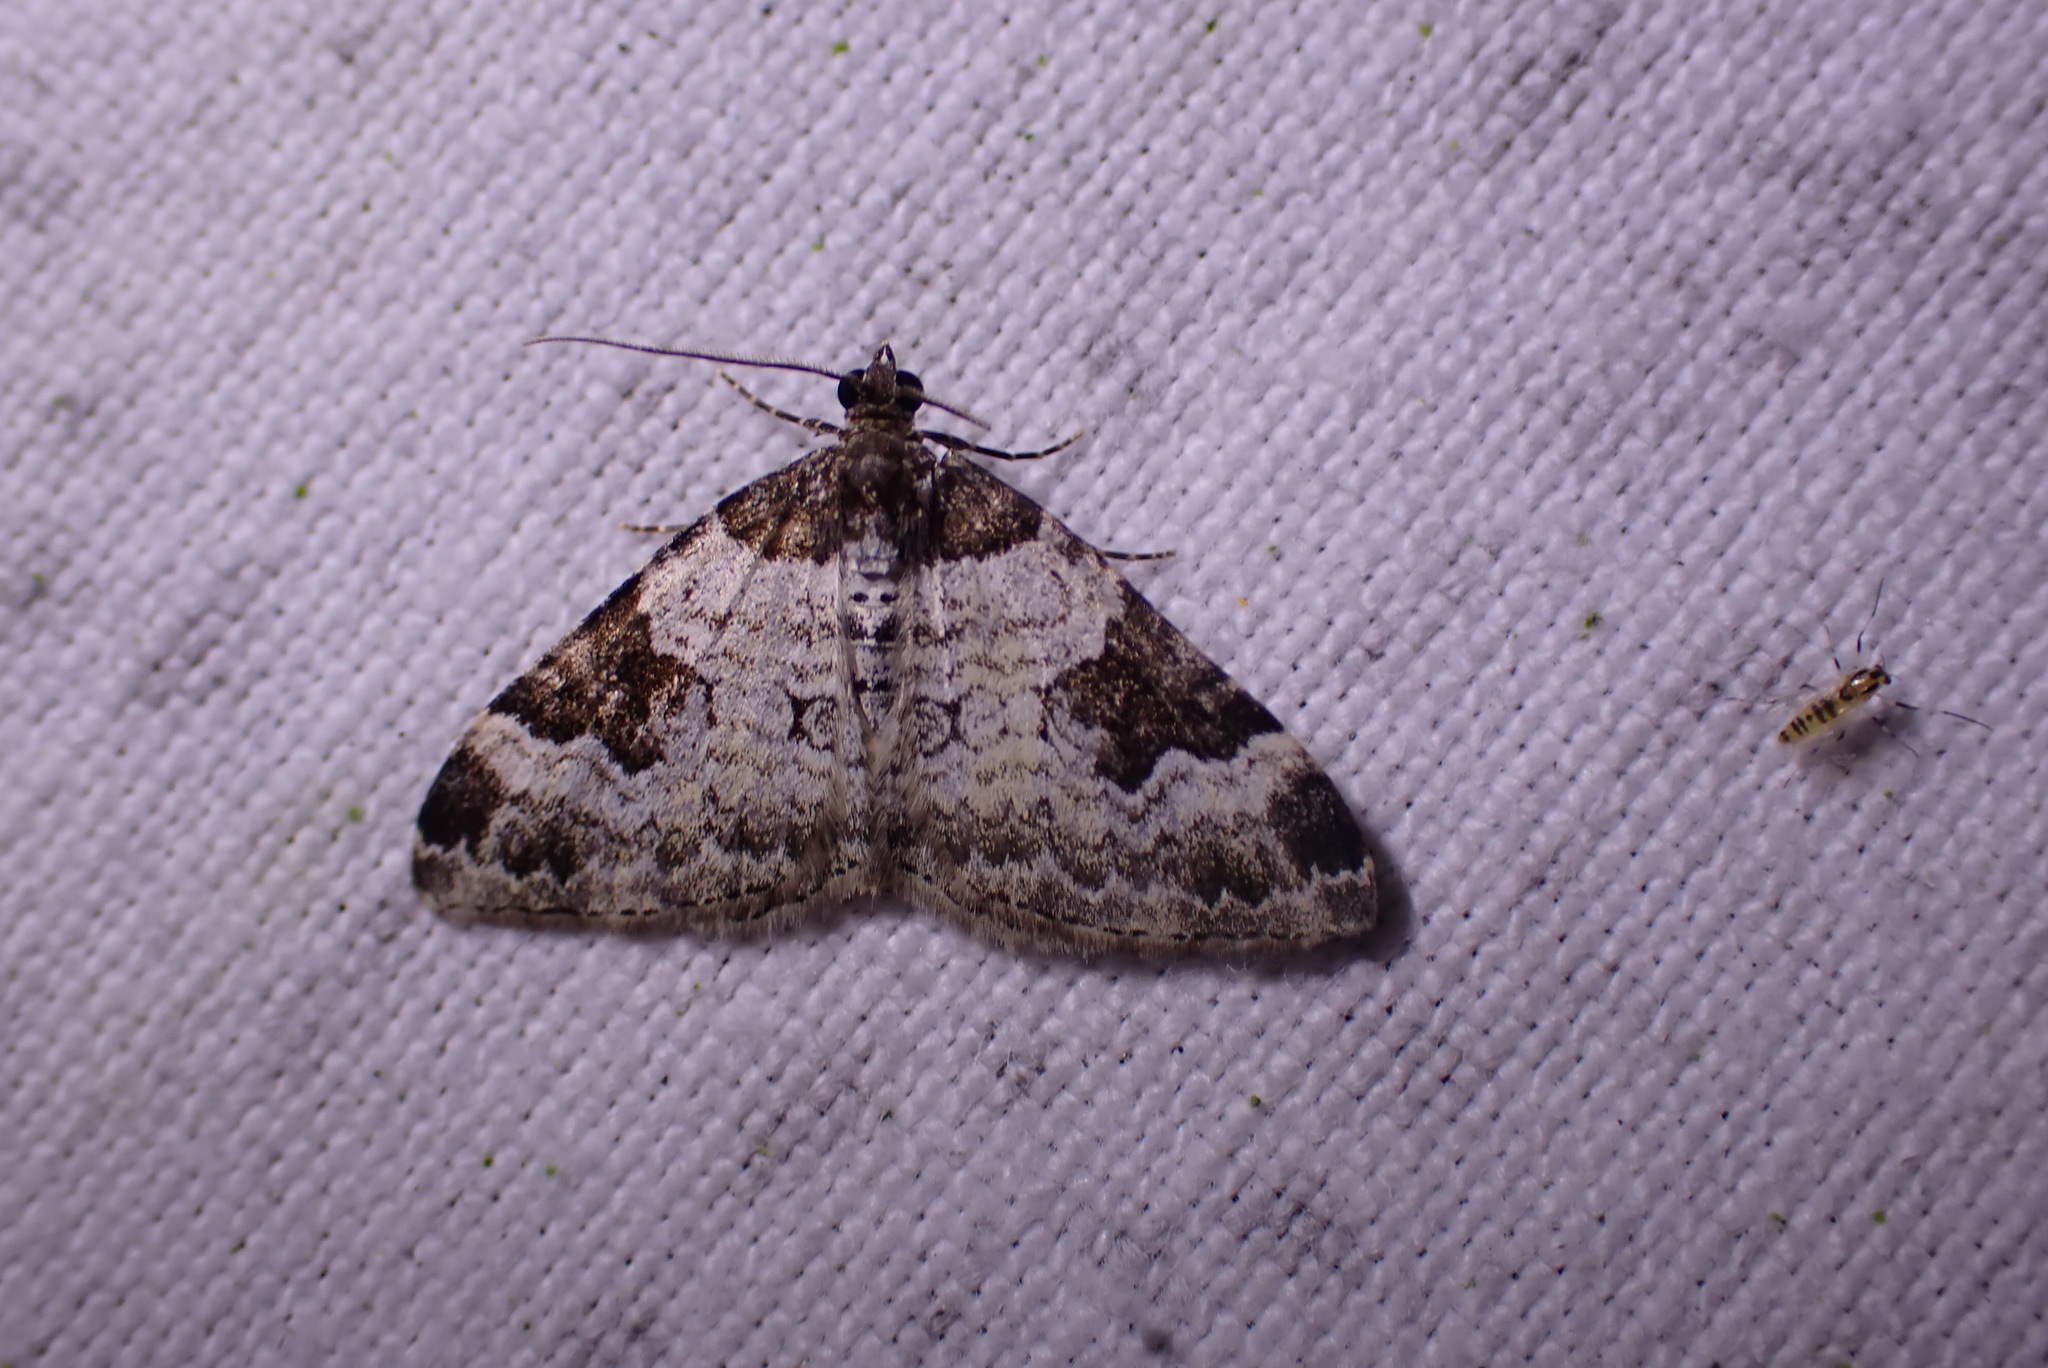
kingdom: Animalia
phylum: Arthropoda
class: Insecta
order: Lepidoptera
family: Geometridae
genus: Xanthorhoe
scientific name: Xanthorhoe fluctuata
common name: Garden carpet
